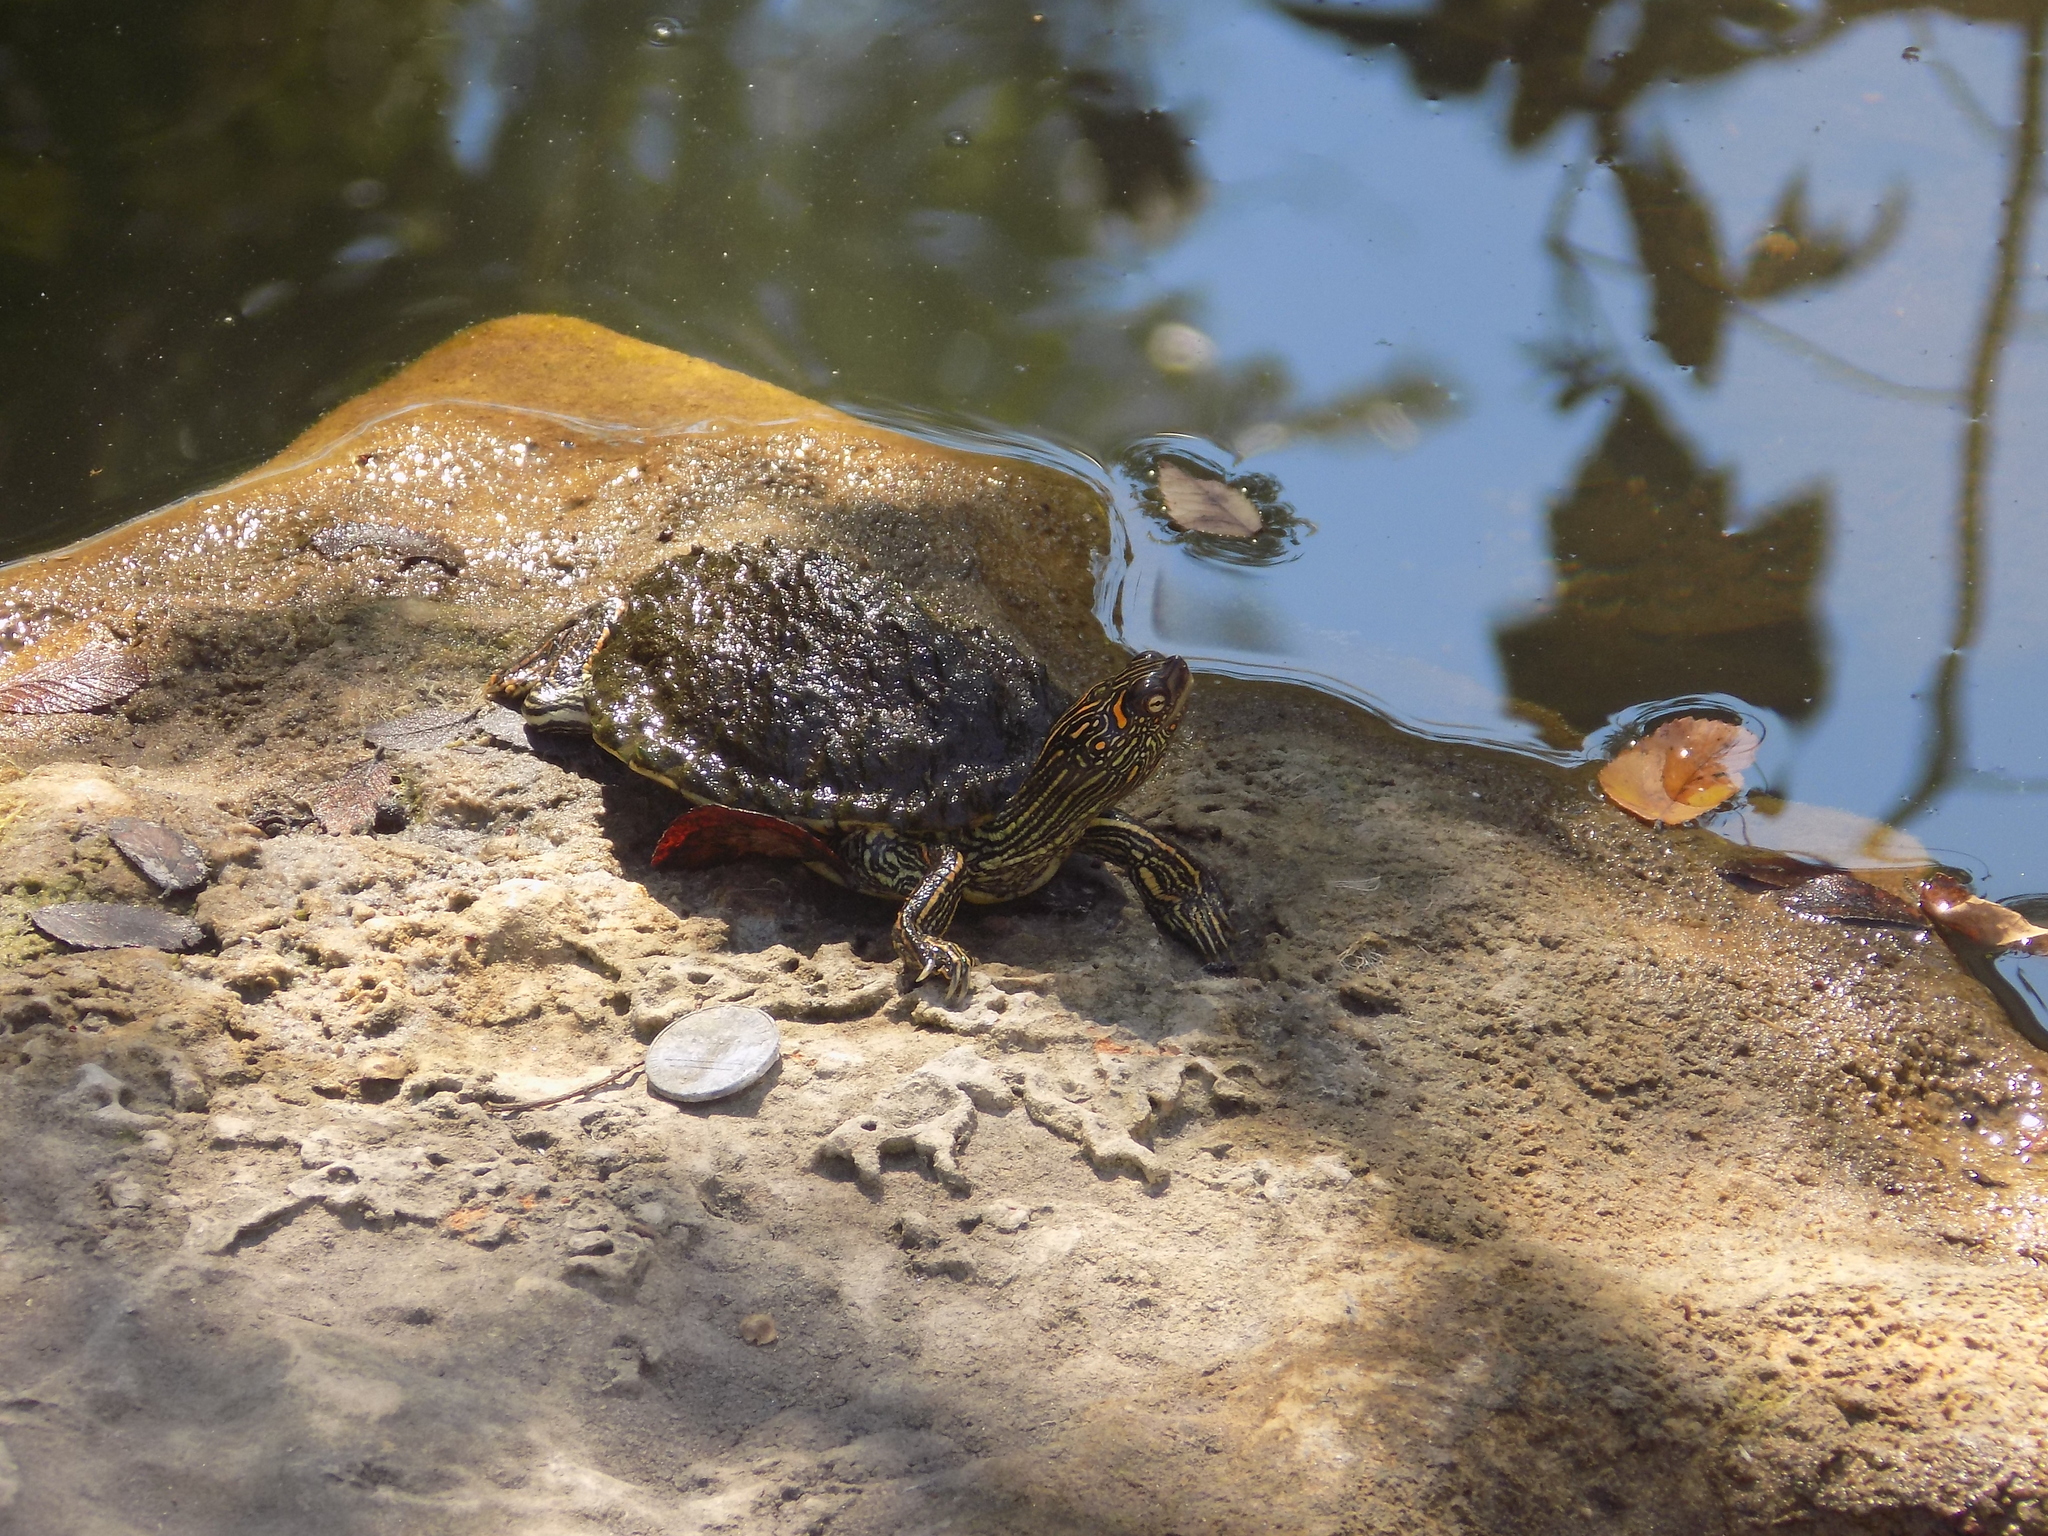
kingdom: Animalia
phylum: Chordata
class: Testudines
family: Emydidae
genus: Graptemys
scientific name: Graptemys versa
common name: Texas map turtle
